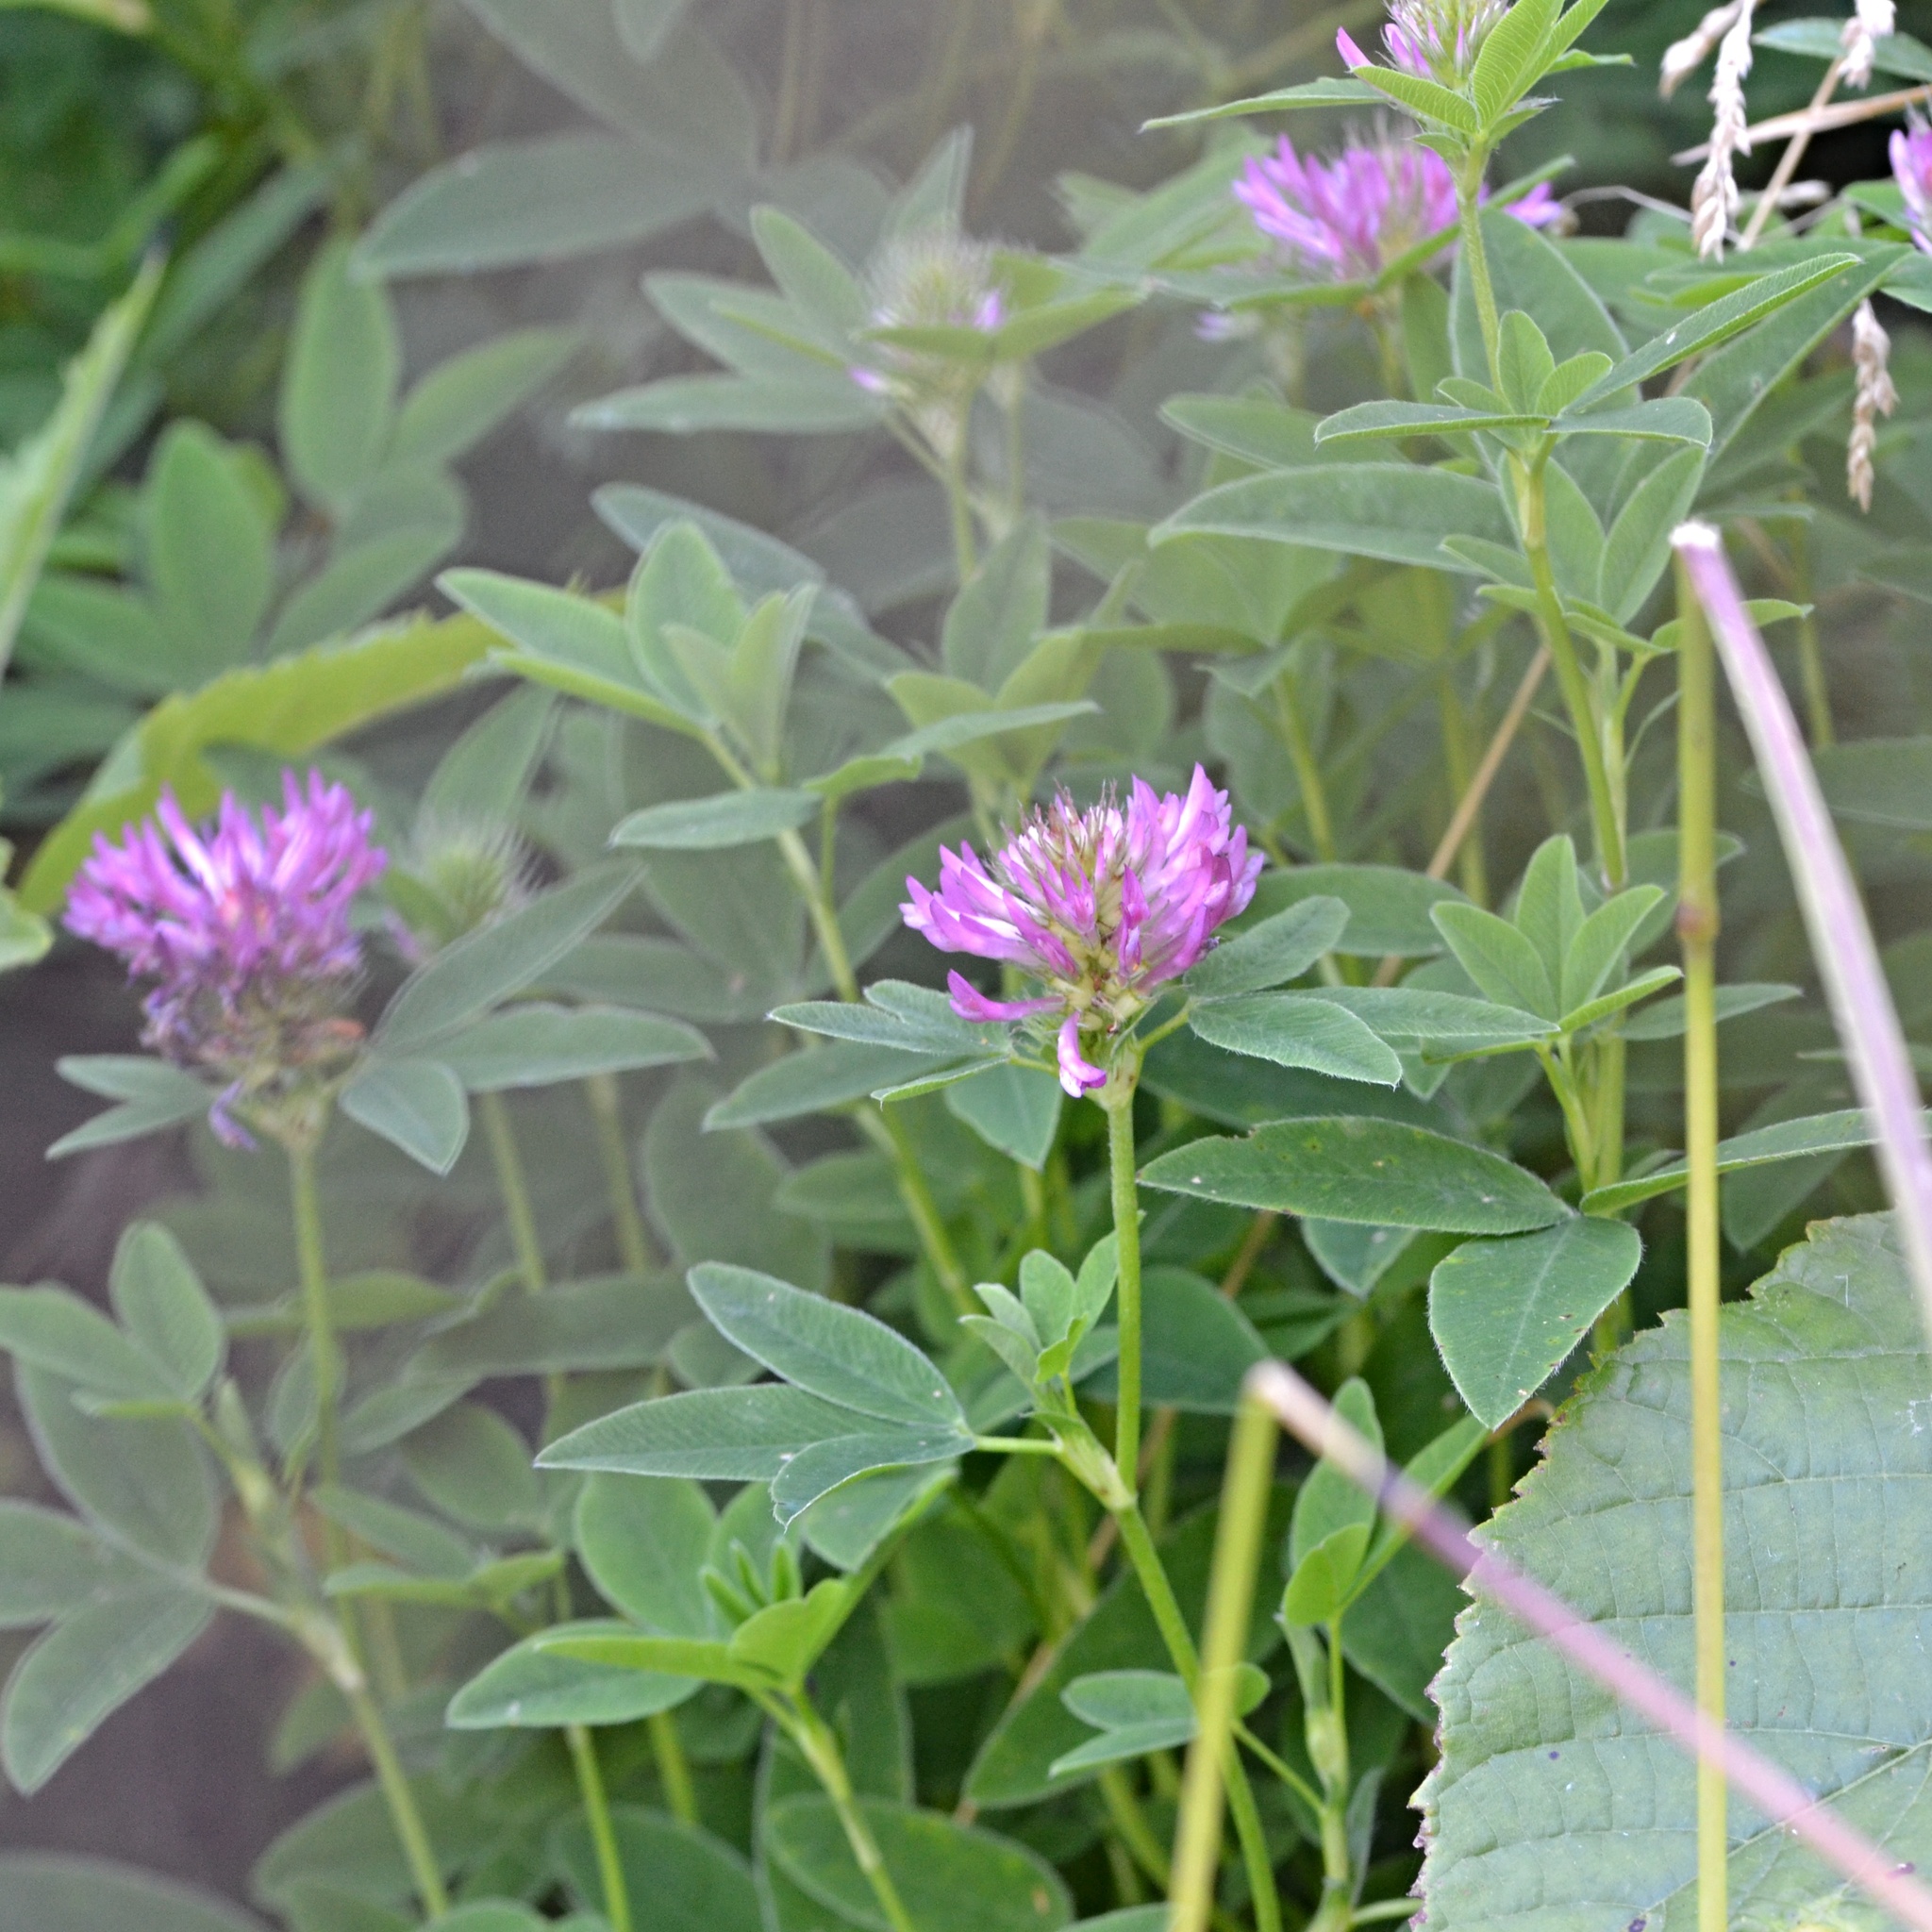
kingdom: Plantae
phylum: Tracheophyta
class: Magnoliopsida
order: Fabales
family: Fabaceae
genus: Trifolium
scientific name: Trifolium medium
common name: Zigzag clover
